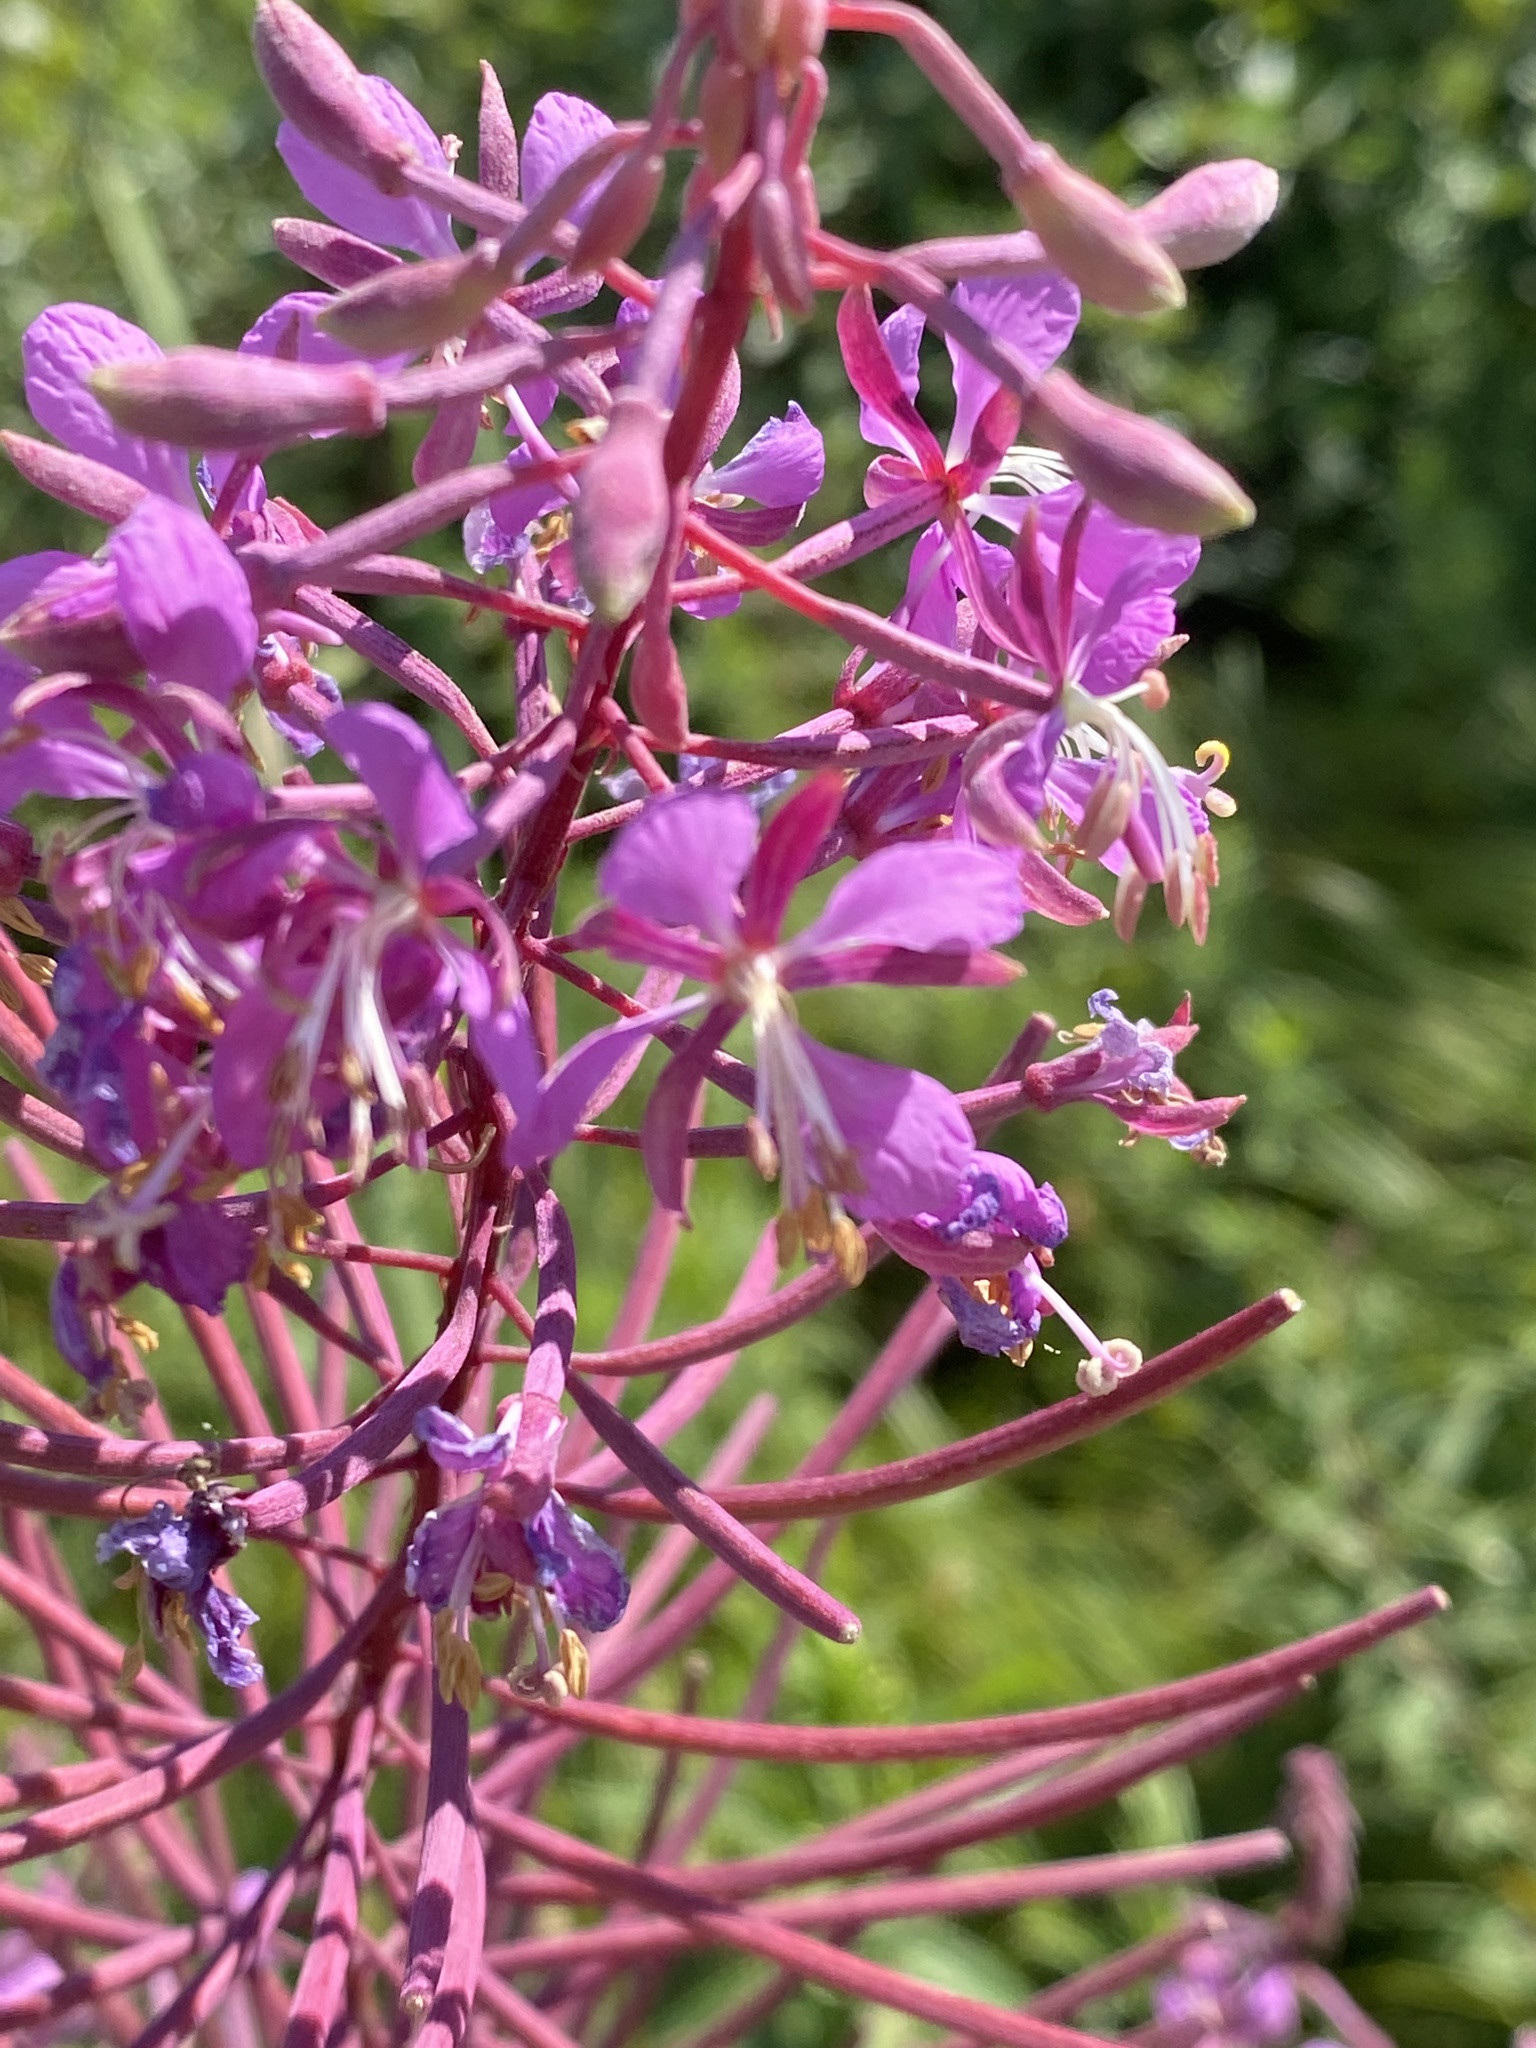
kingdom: Plantae
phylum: Tracheophyta
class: Magnoliopsida
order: Myrtales
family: Onagraceae
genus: Chamaenerion
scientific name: Chamaenerion angustifolium
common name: Fireweed
